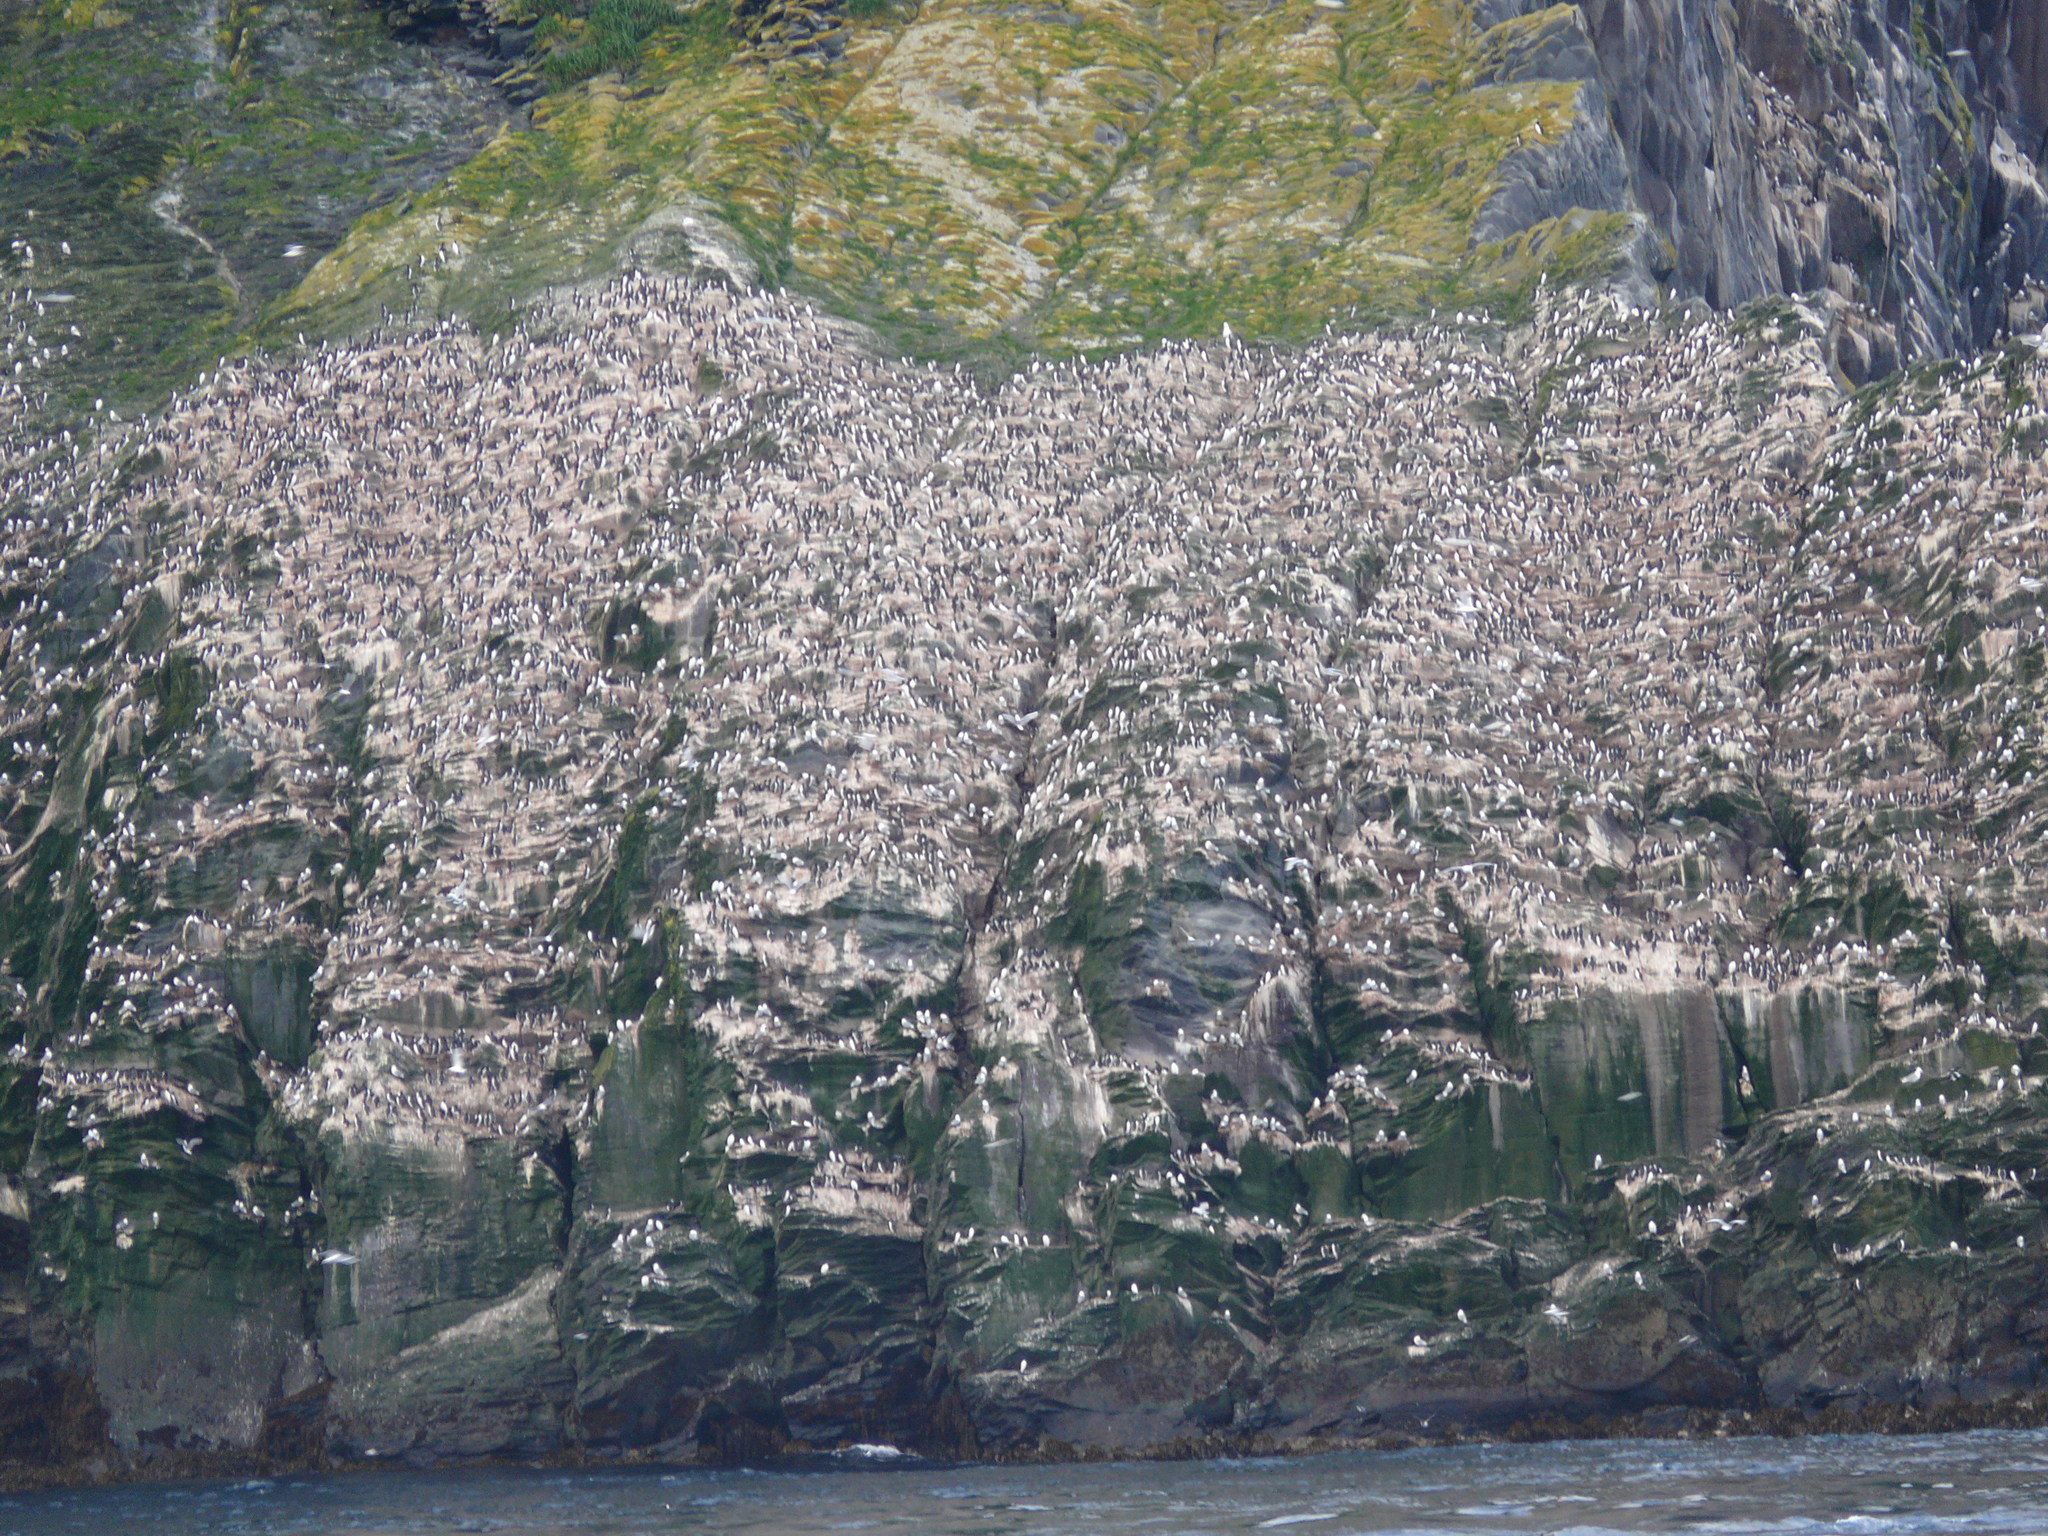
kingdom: Animalia
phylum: Chordata
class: Aves
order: Charadriiformes
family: Alcidae
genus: Uria
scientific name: Uria lomvia
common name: Thick-billed murre
